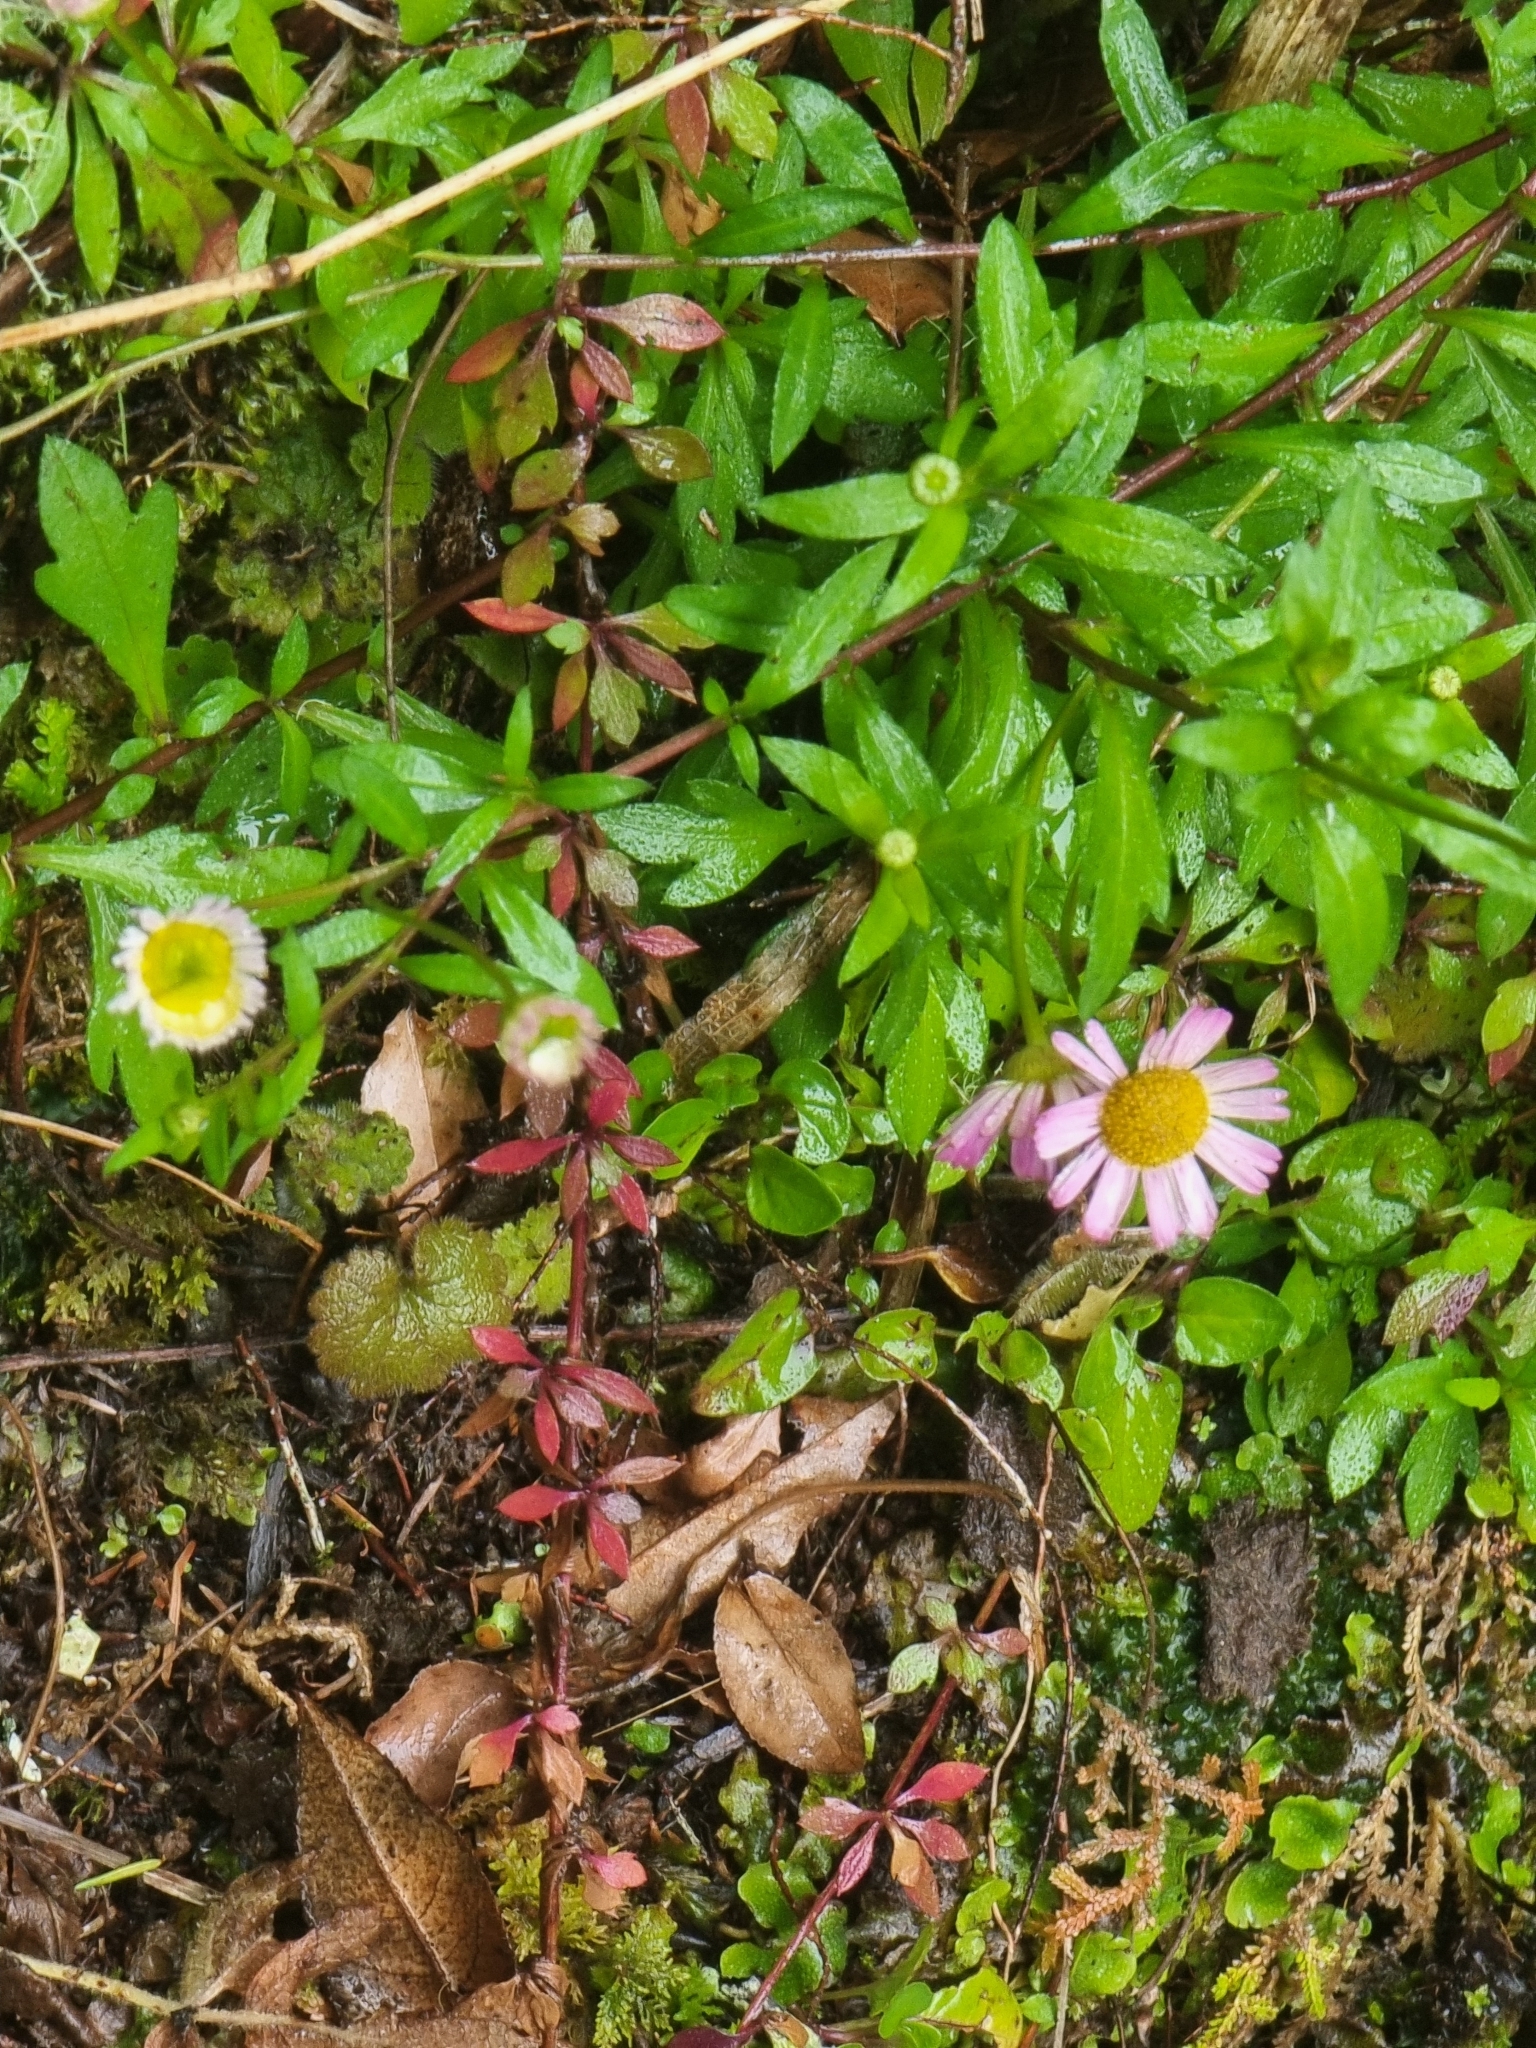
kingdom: Plantae
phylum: Tracheophyta
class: Magnoliopsida
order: Asterales
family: Asteraceae
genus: Erigeron
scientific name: Erigeron karvinskianus
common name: Mexican fleabane
